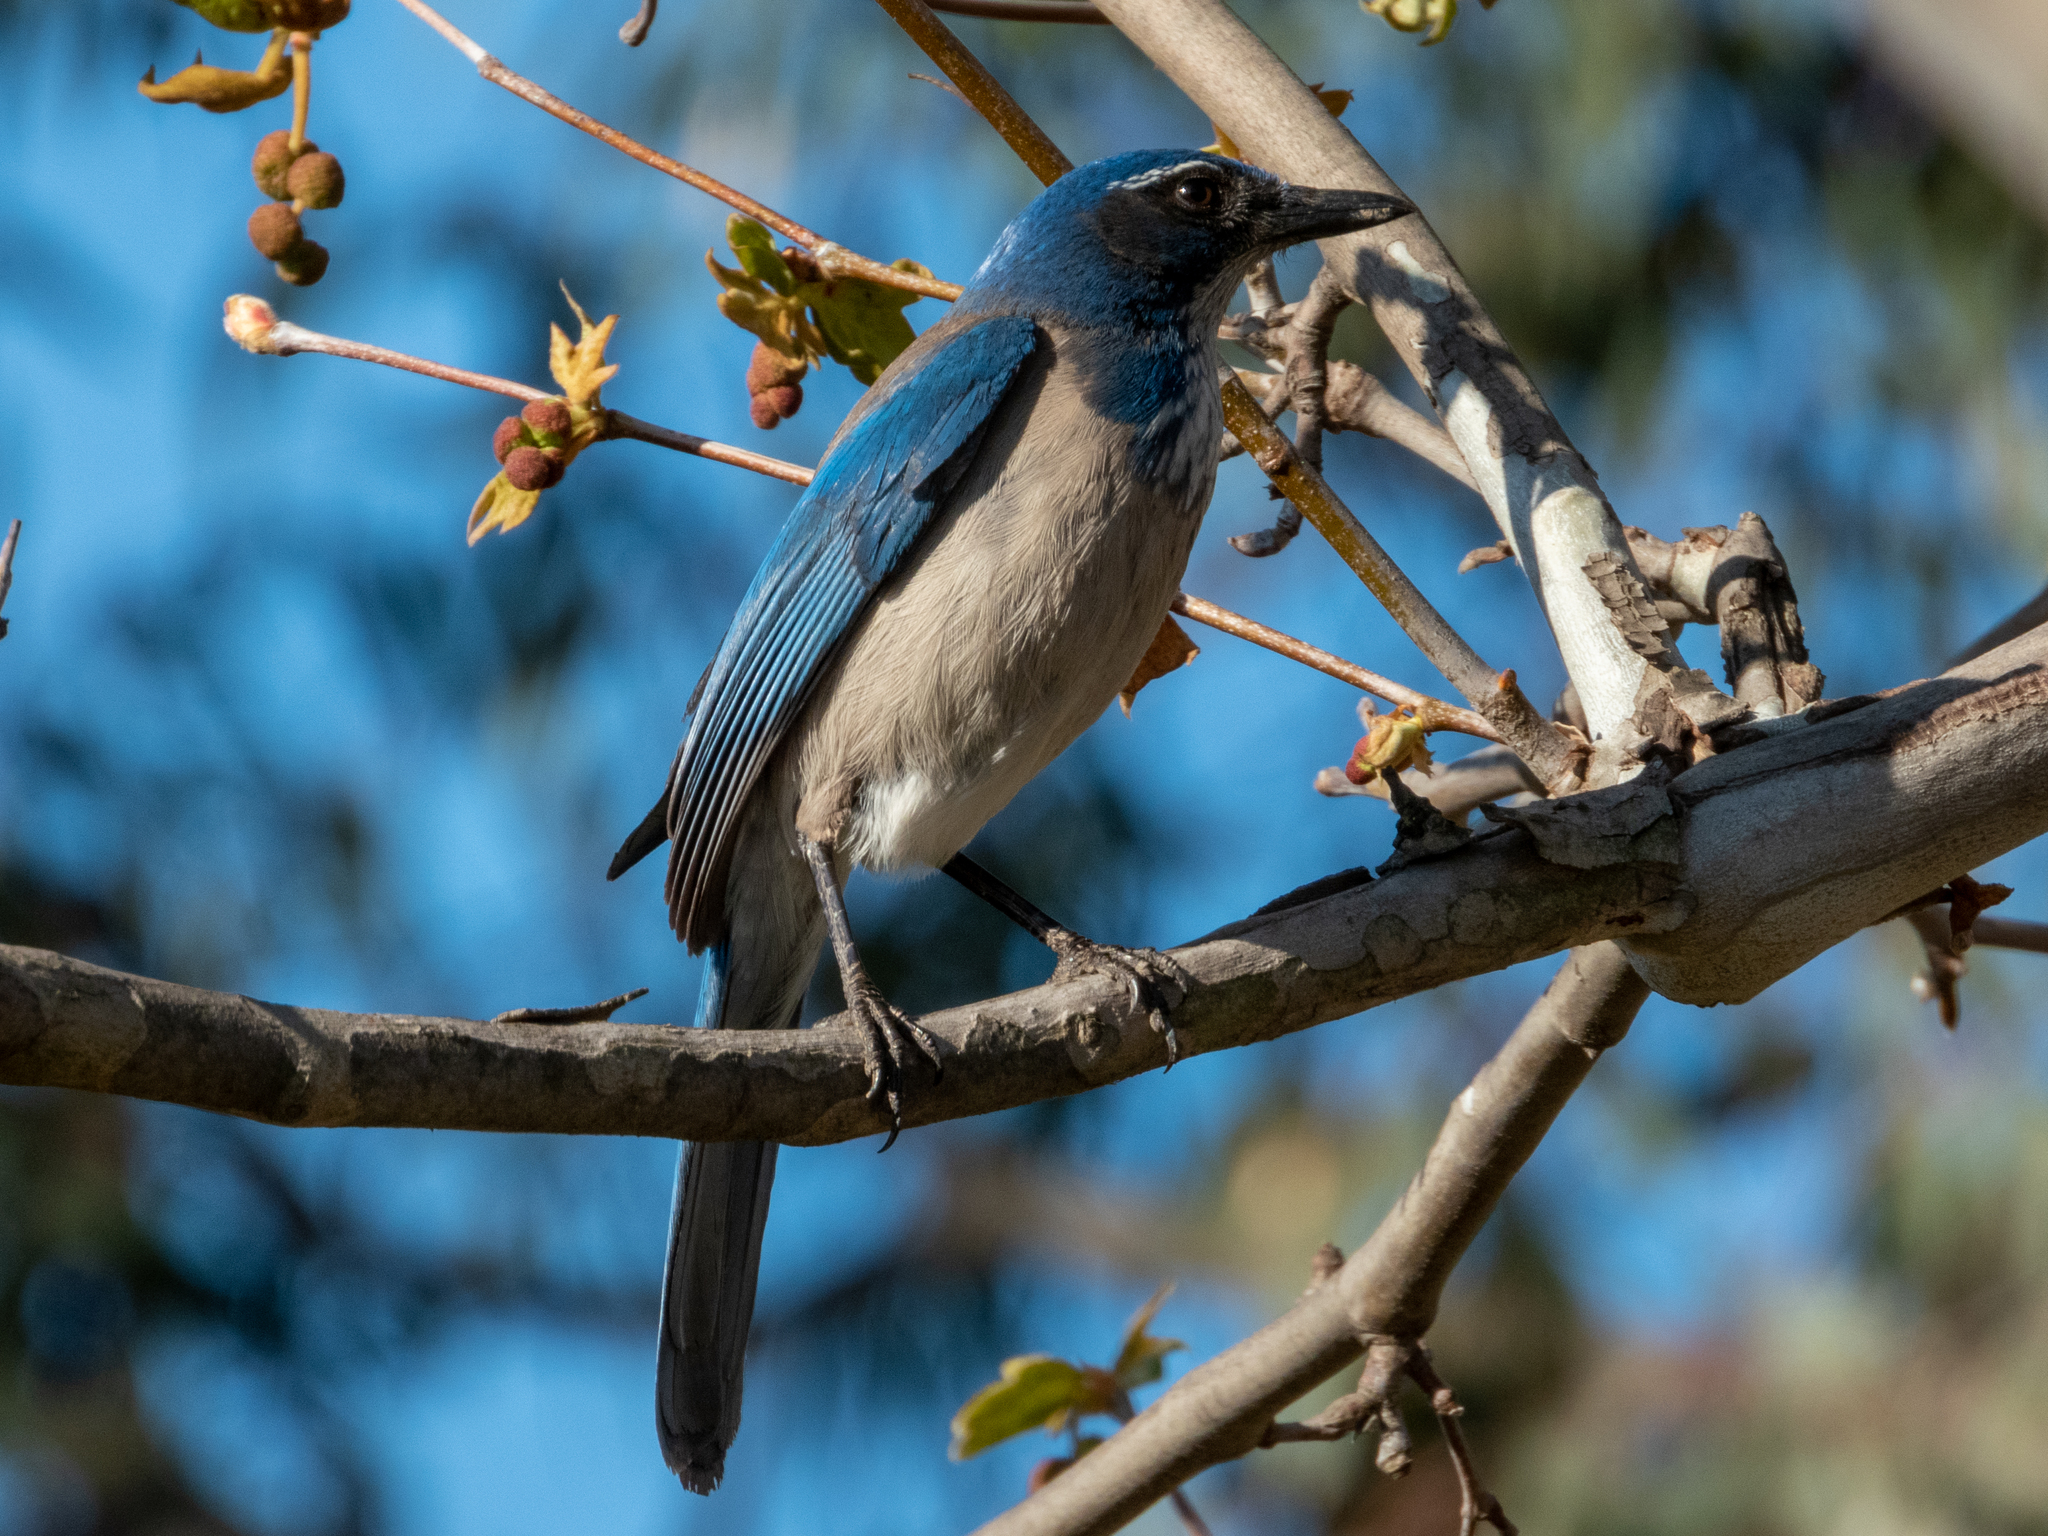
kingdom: Animalia
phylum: Chordata
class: Aves
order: Passeriformes
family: Corvidae
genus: Aphelocoma
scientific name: Aphelocoma californica
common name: California scrub-jay
